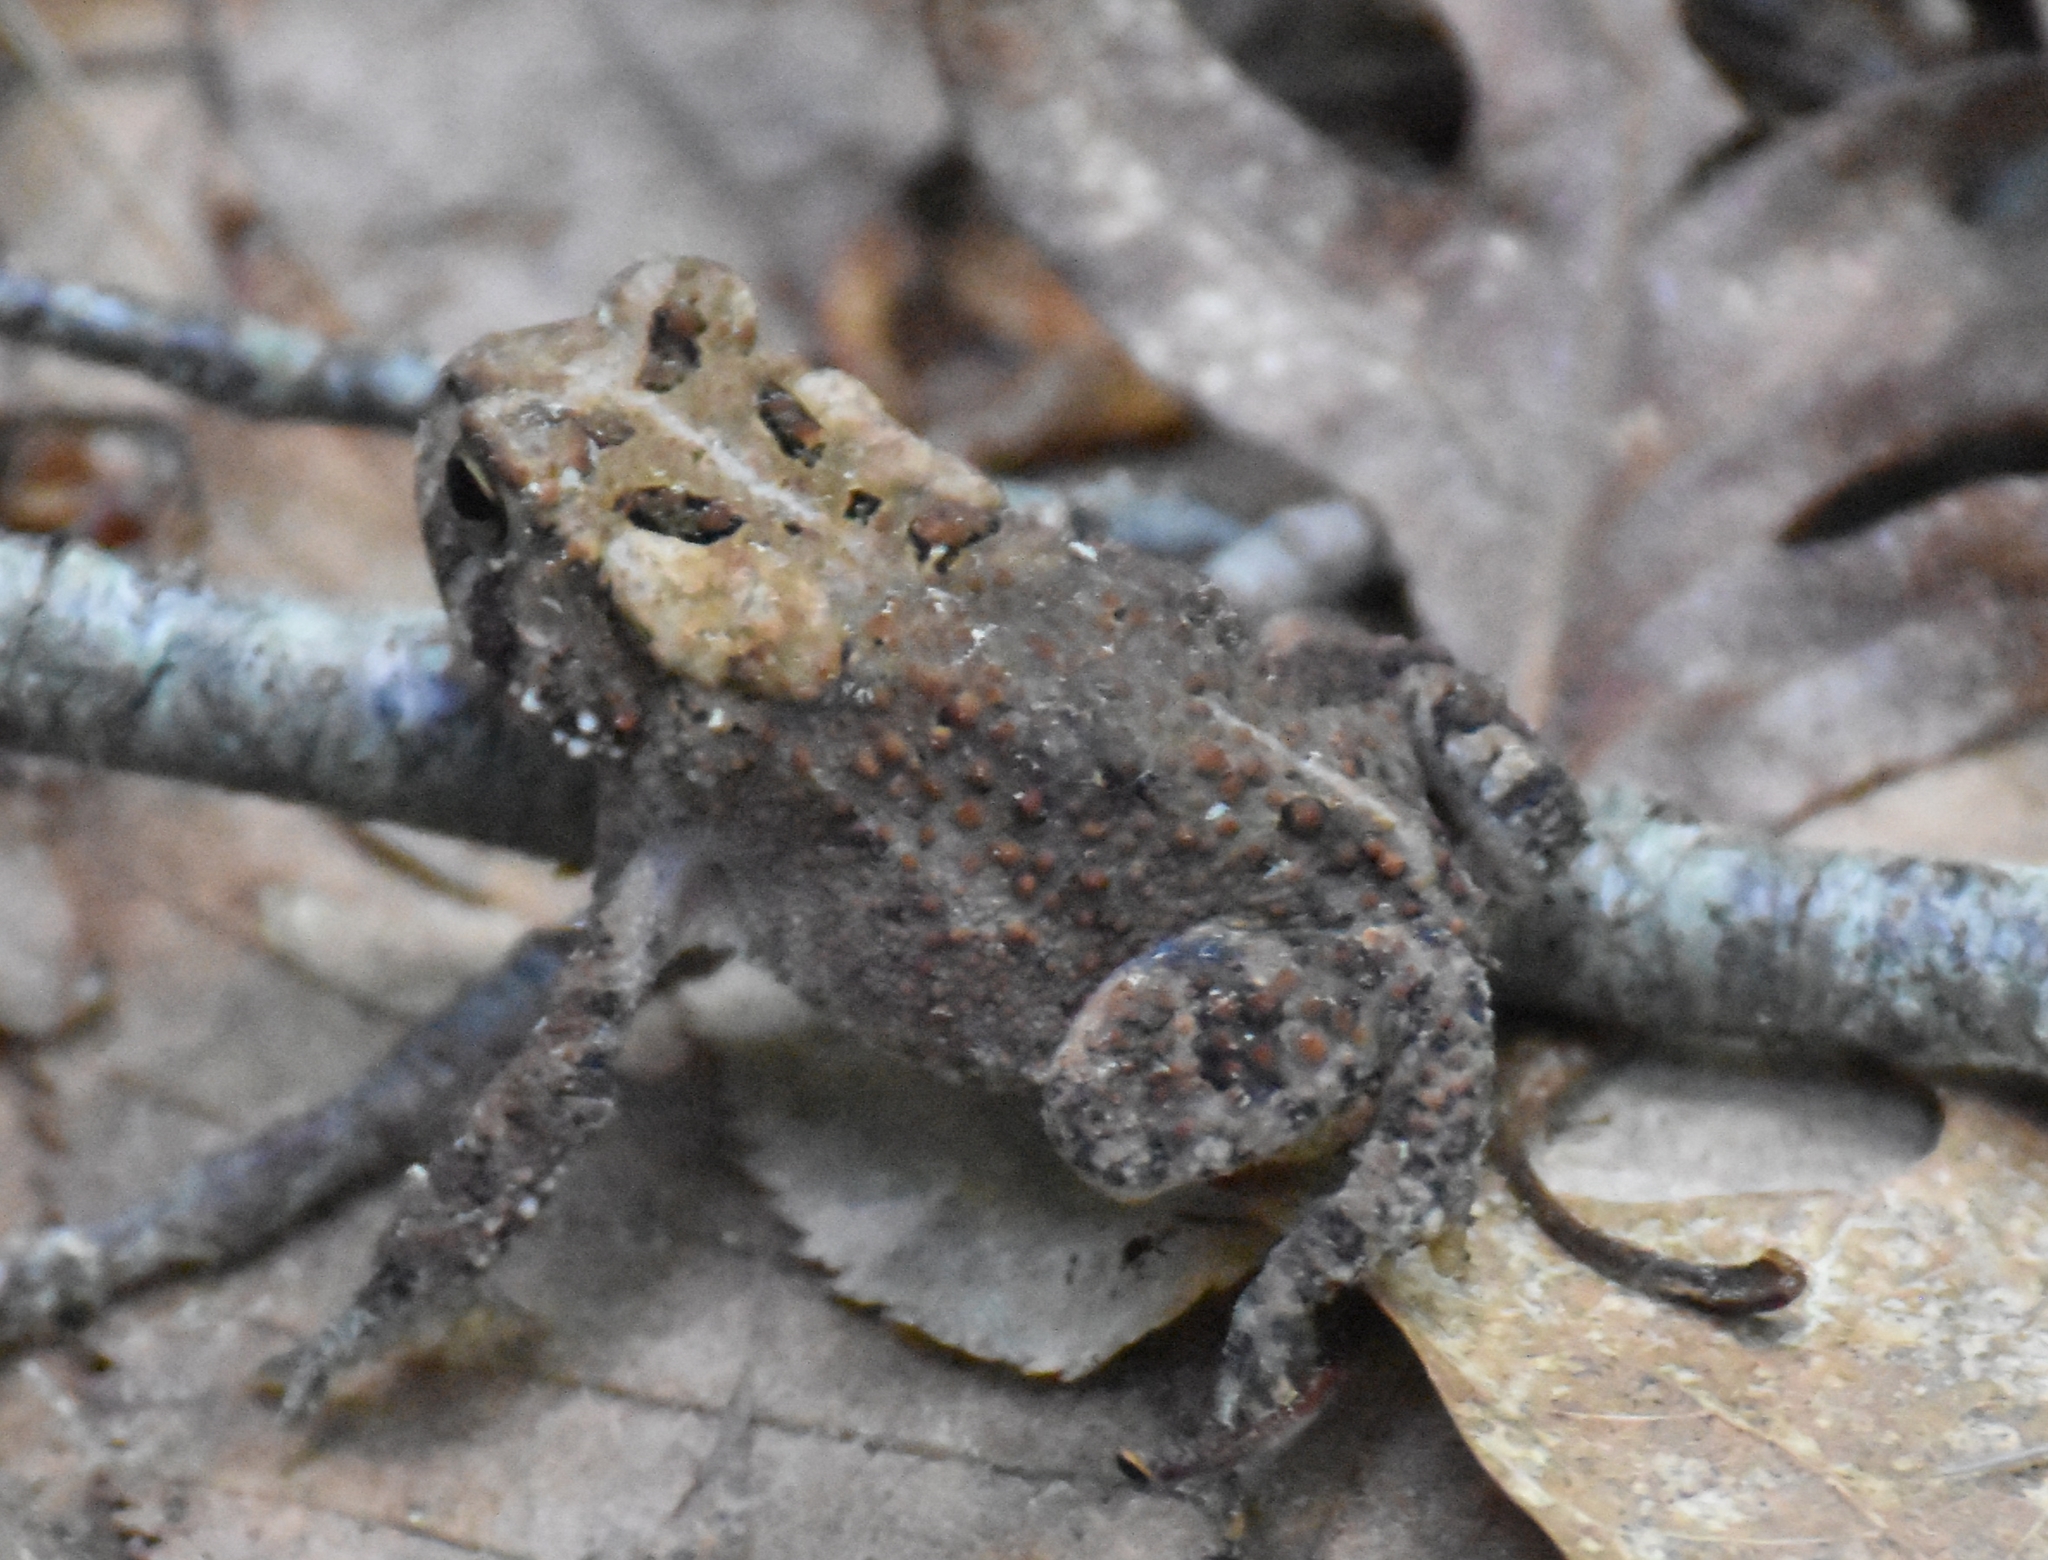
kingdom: Animalia
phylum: Chordata
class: Amphibia
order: Anura
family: Bufonidae
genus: Anaxyrus
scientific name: Anaxyrus americanus
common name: American toad
